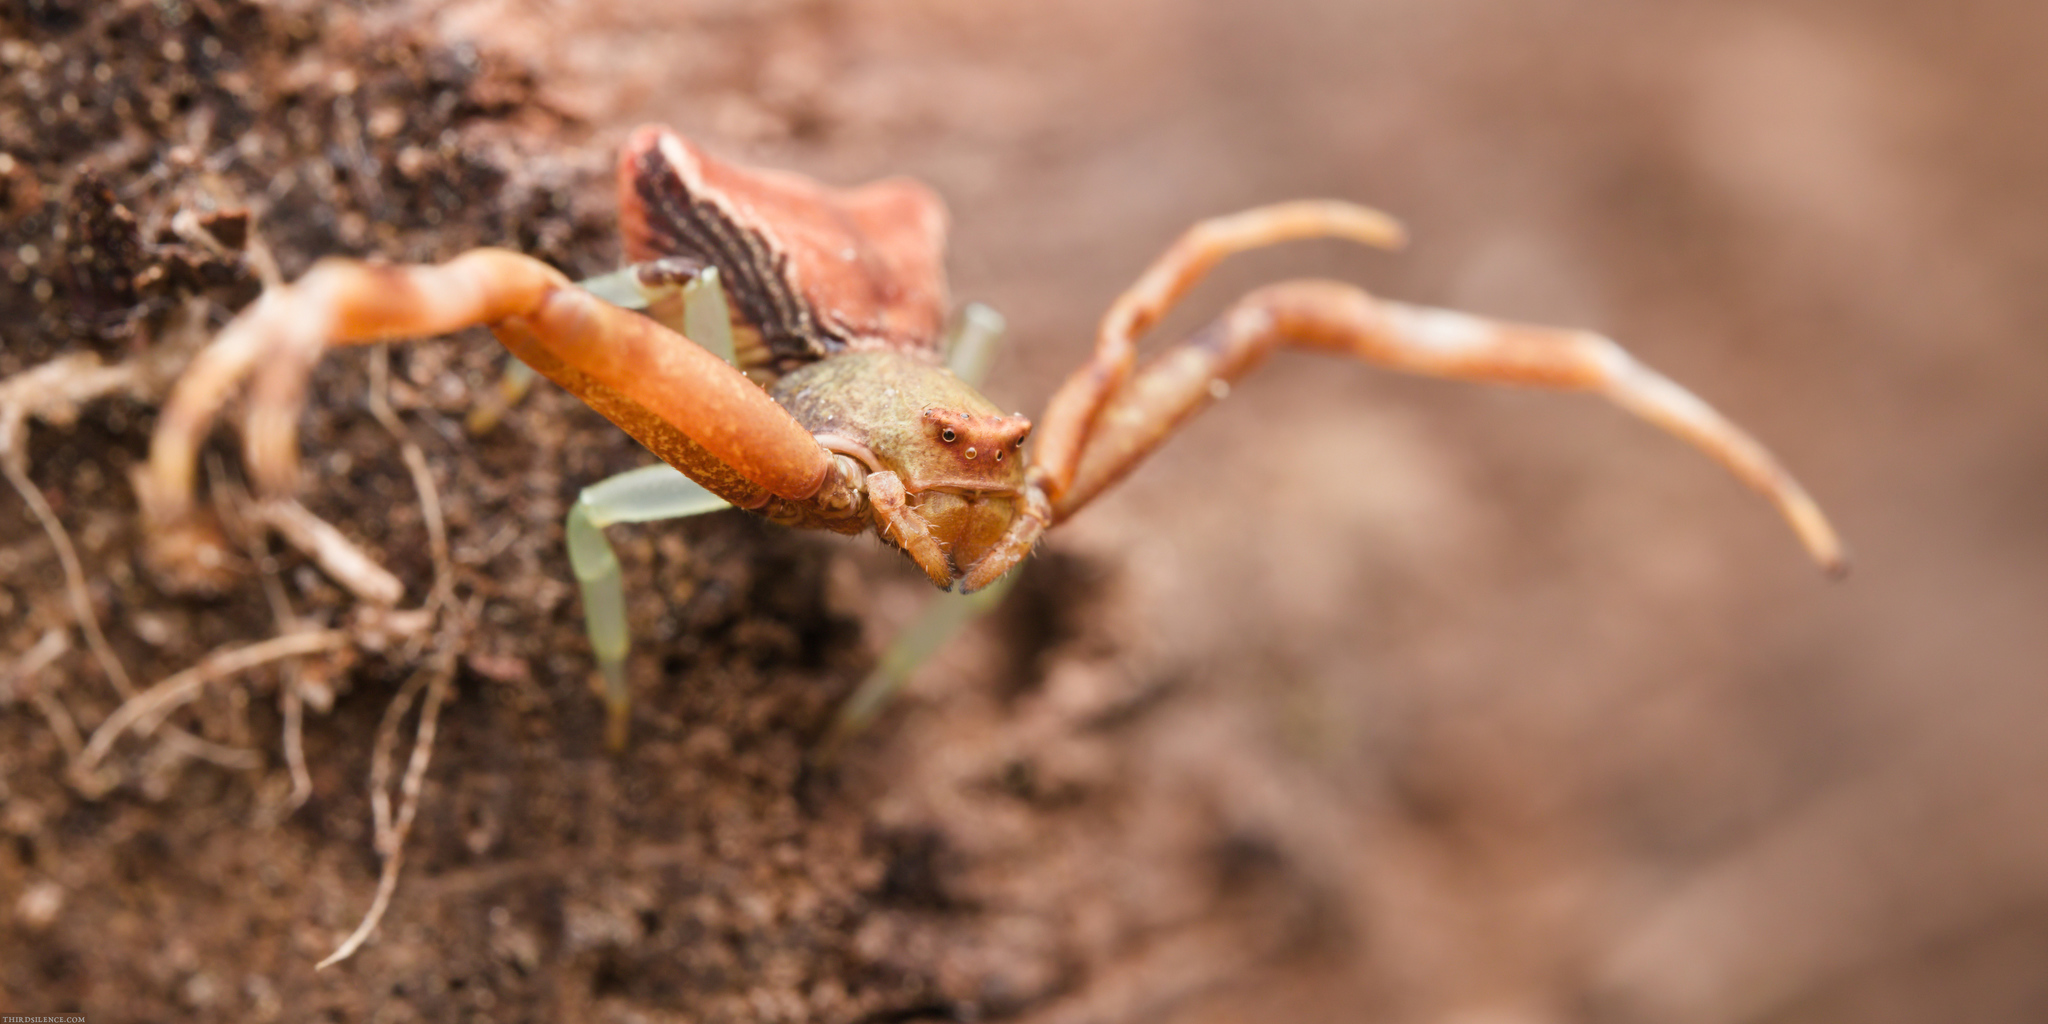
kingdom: Animalia
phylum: Arthropoda
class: Arachnida
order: Araneae
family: Thomisidae
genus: Pistius
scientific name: Pistius truncatus
